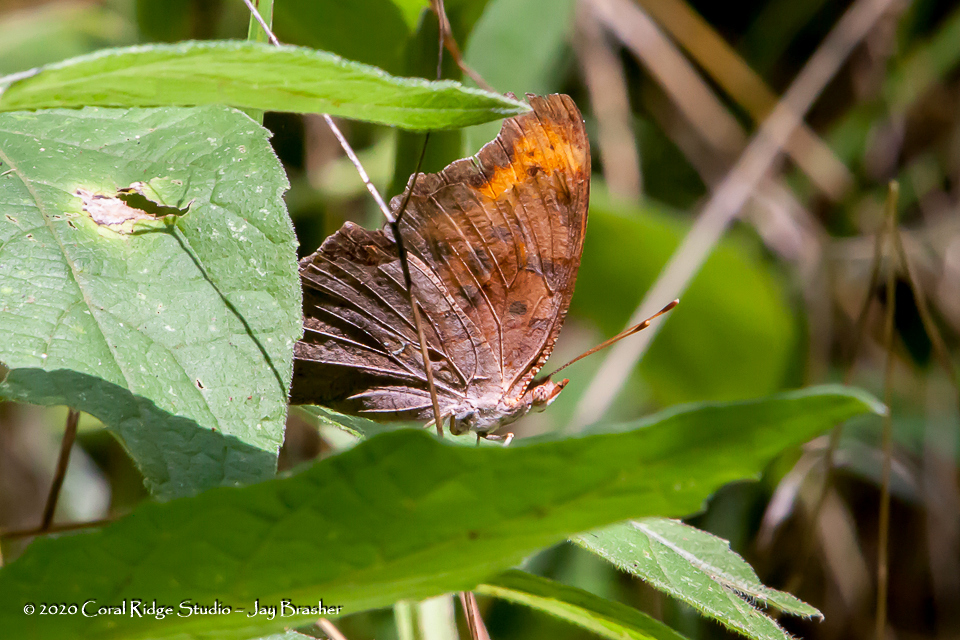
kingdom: Animalia
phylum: Arthropoda
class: Insecta
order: Lepidoptera
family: Nymphalidae
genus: Polygonia
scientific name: Polygonia interrogationis
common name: Question mark
